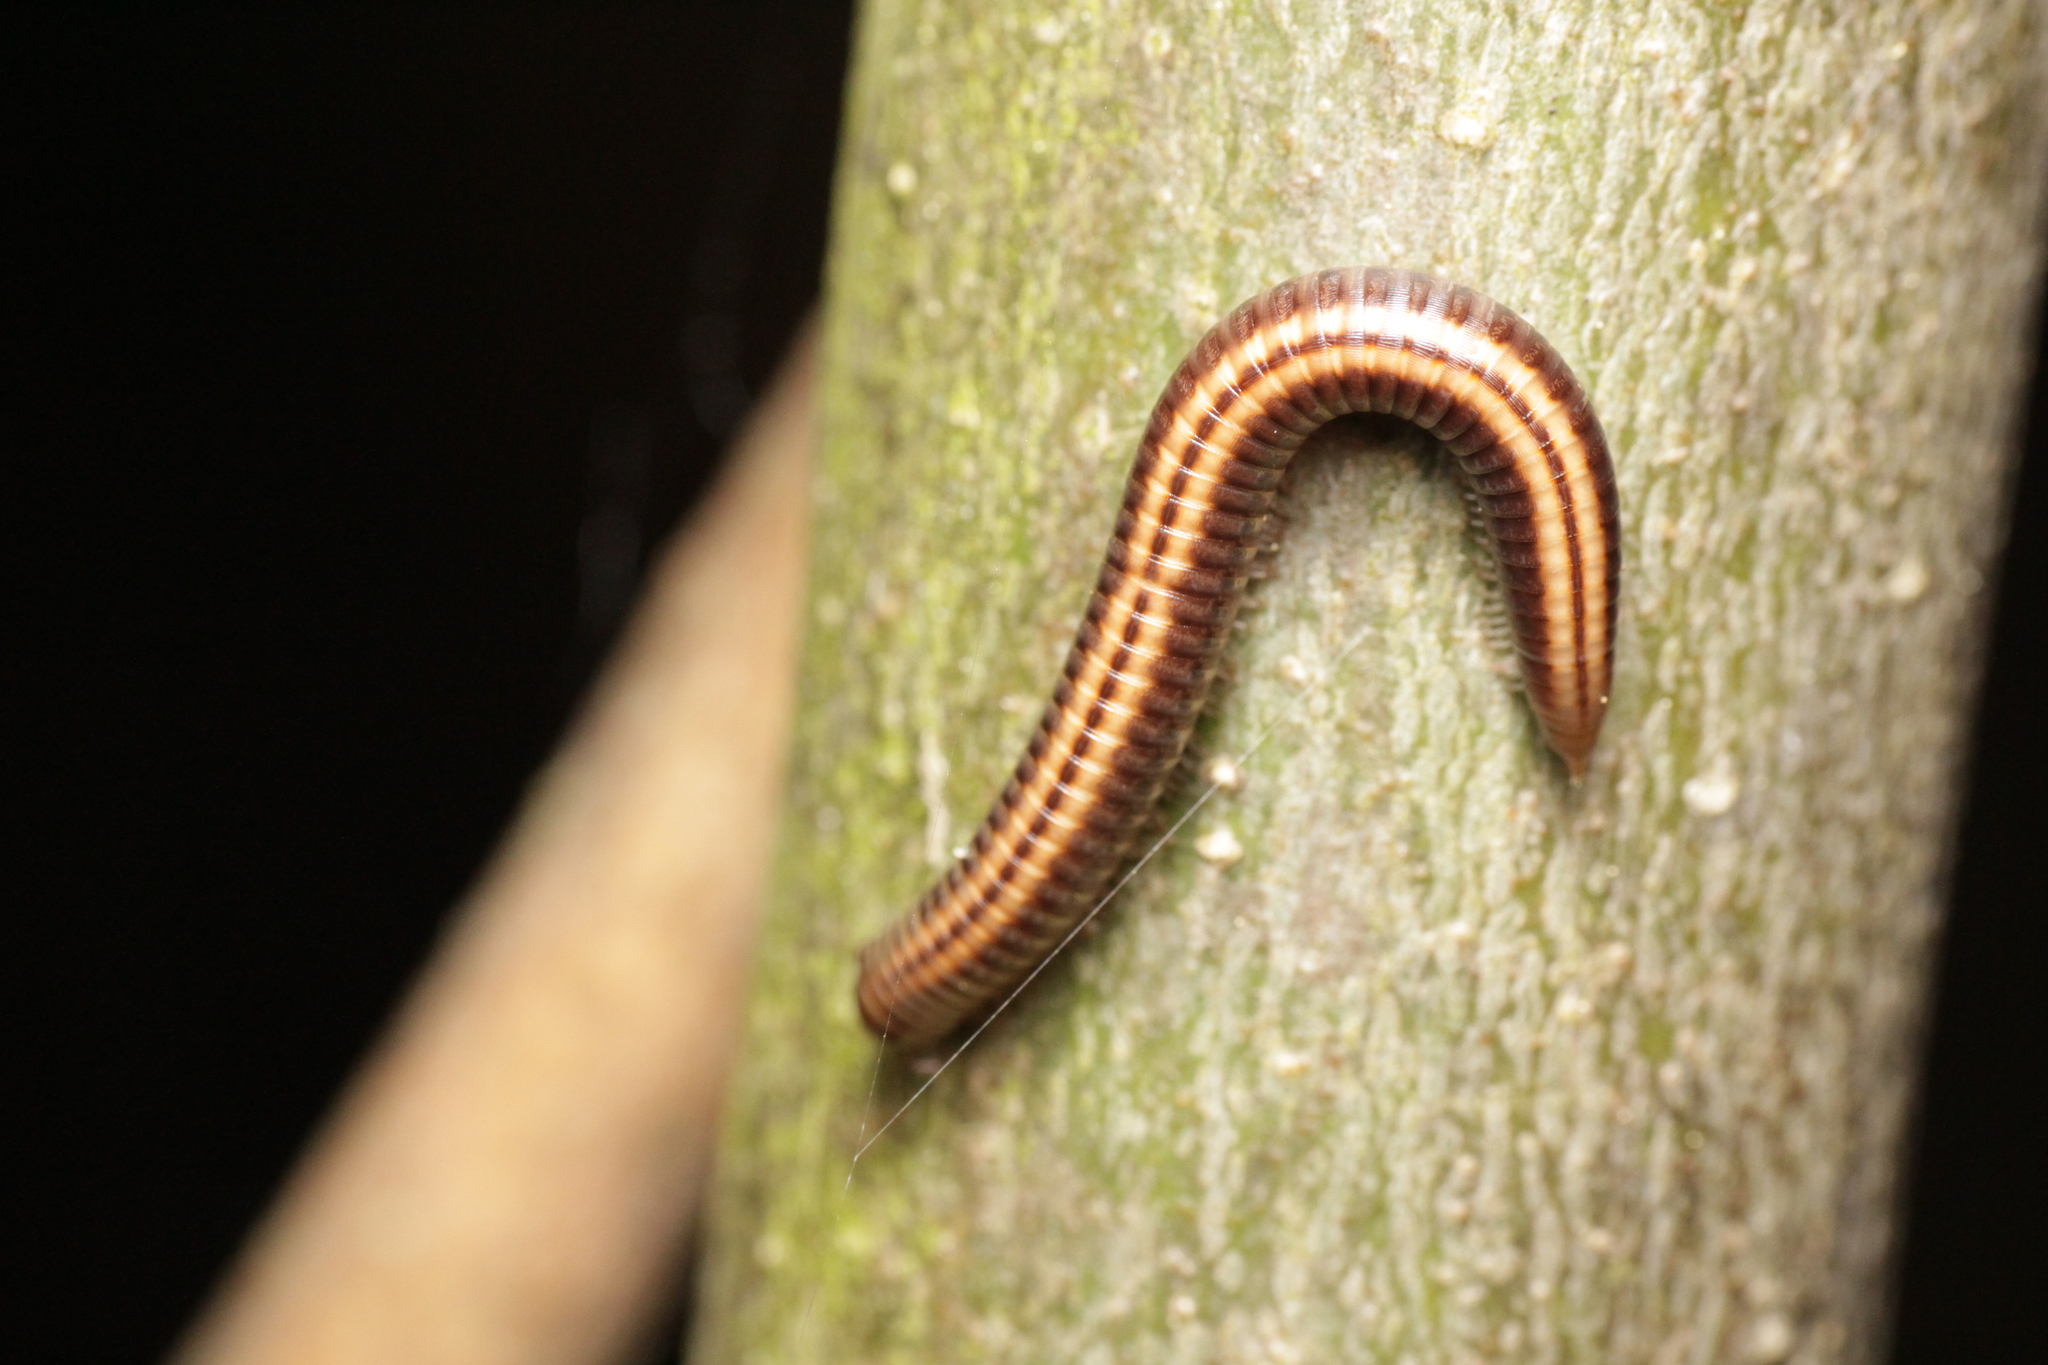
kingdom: Animalia
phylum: Arthropoda
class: Diplopoda
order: Julida
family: Julidae
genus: Ommatoiulus
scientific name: Ommatoiulus sabulosus
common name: Striped millipede
